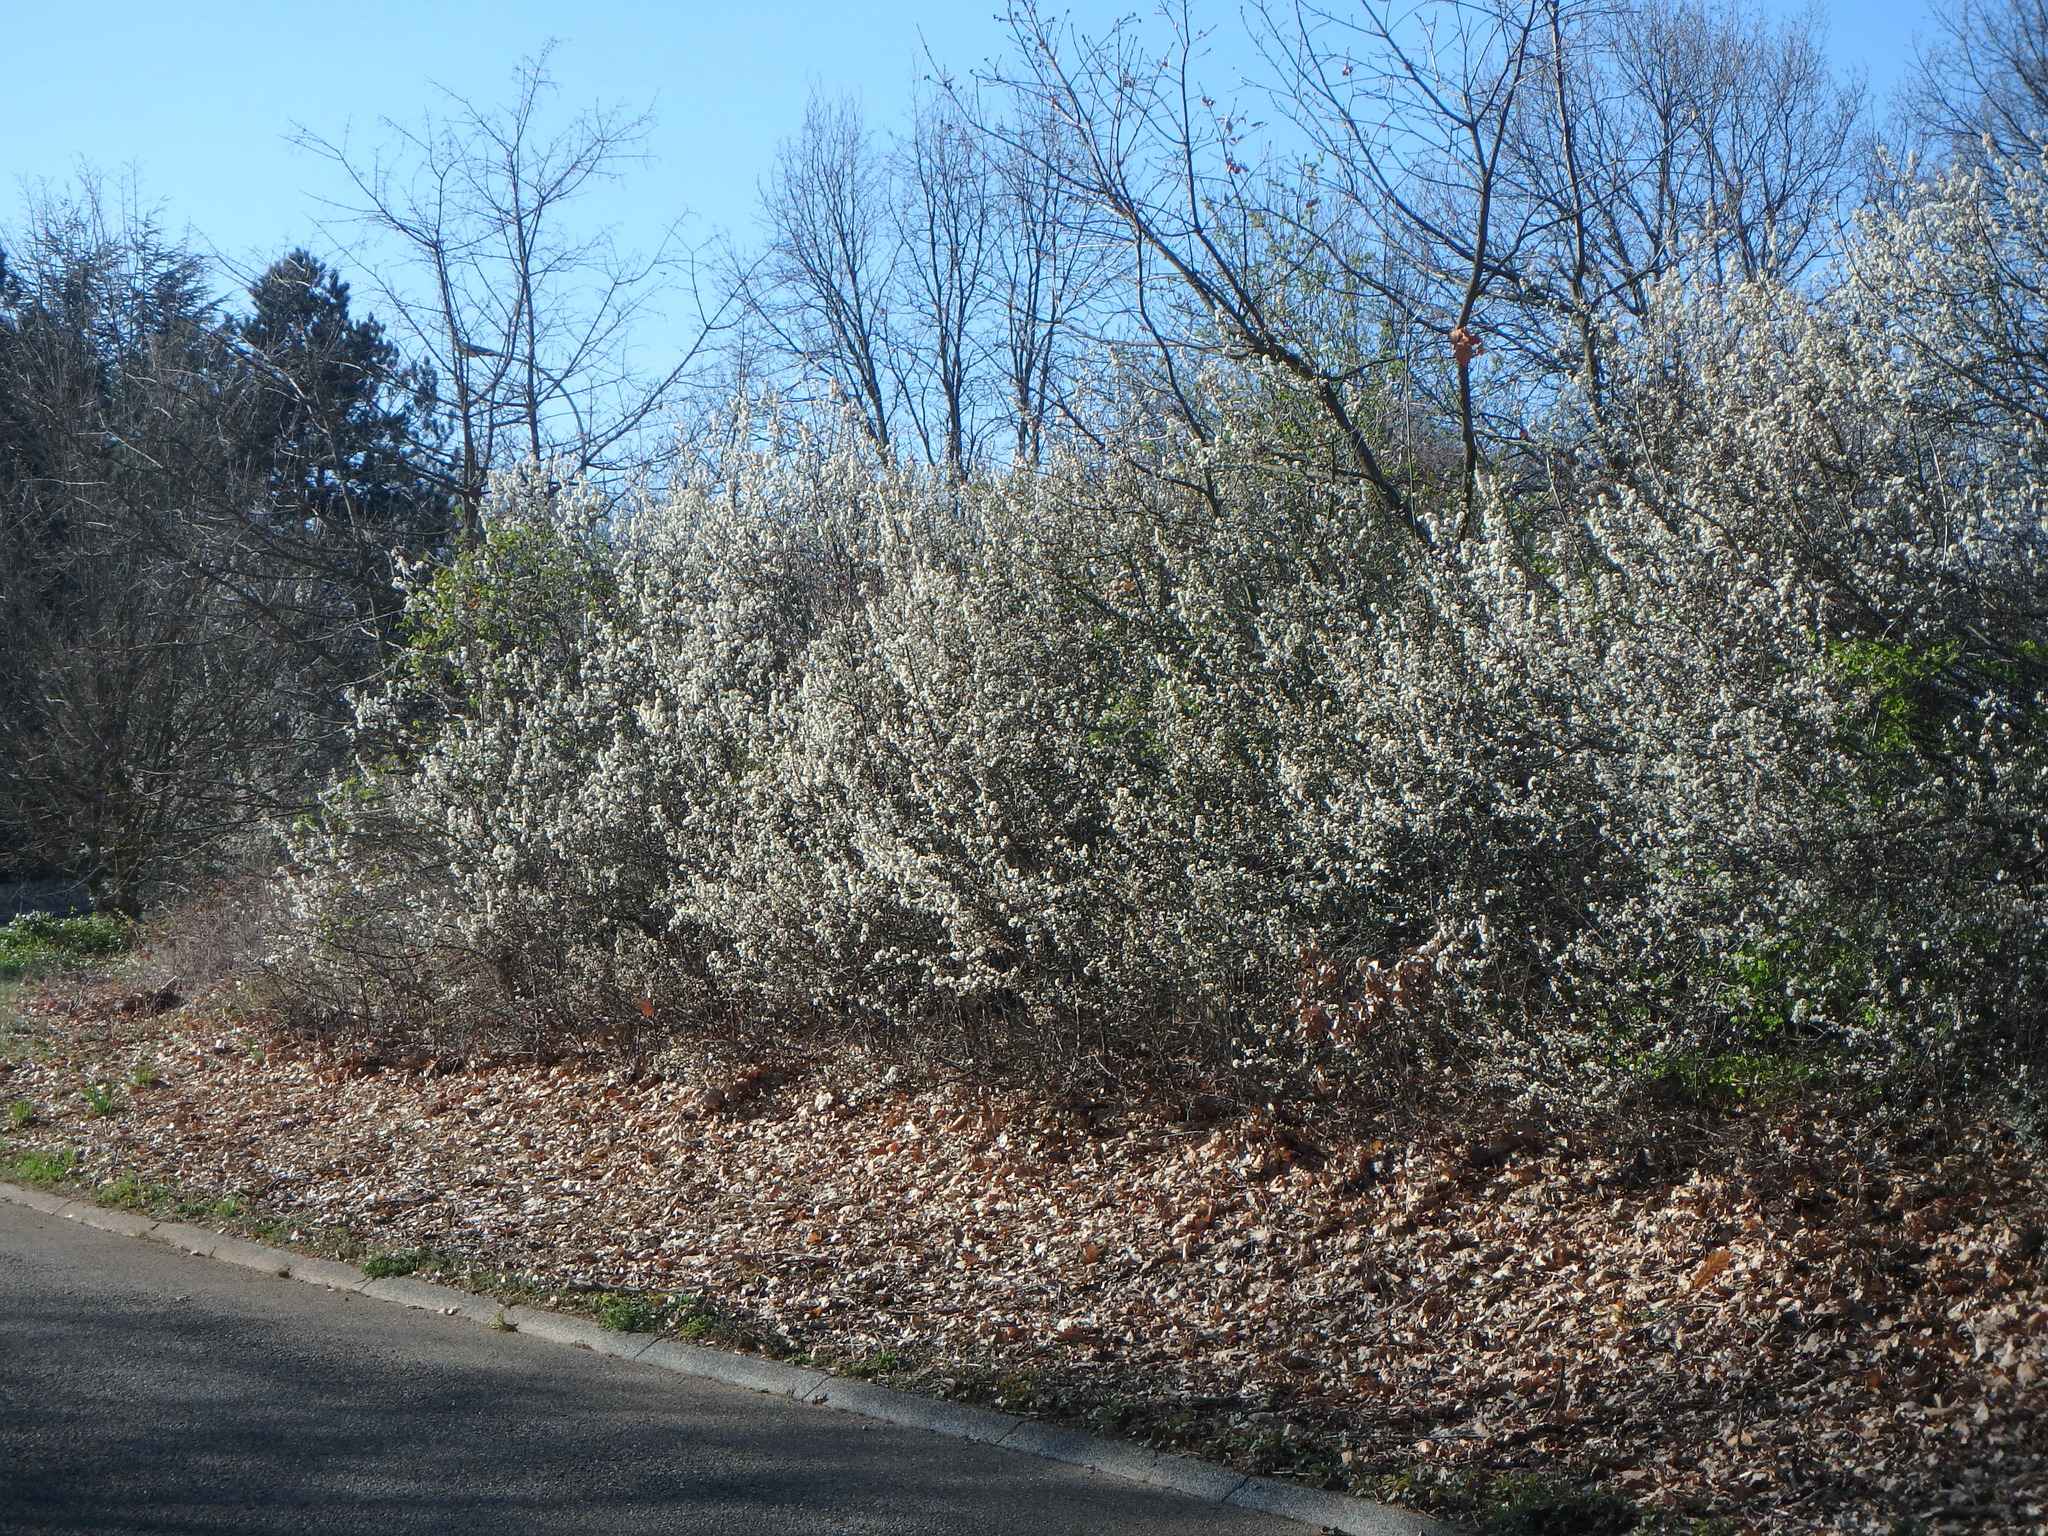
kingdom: Plantae
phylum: Tracheophyta
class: Magnoliopsida
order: Rosales
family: Rosaceae
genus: Prunus
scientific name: Prunus spinosa
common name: Blackthorn
